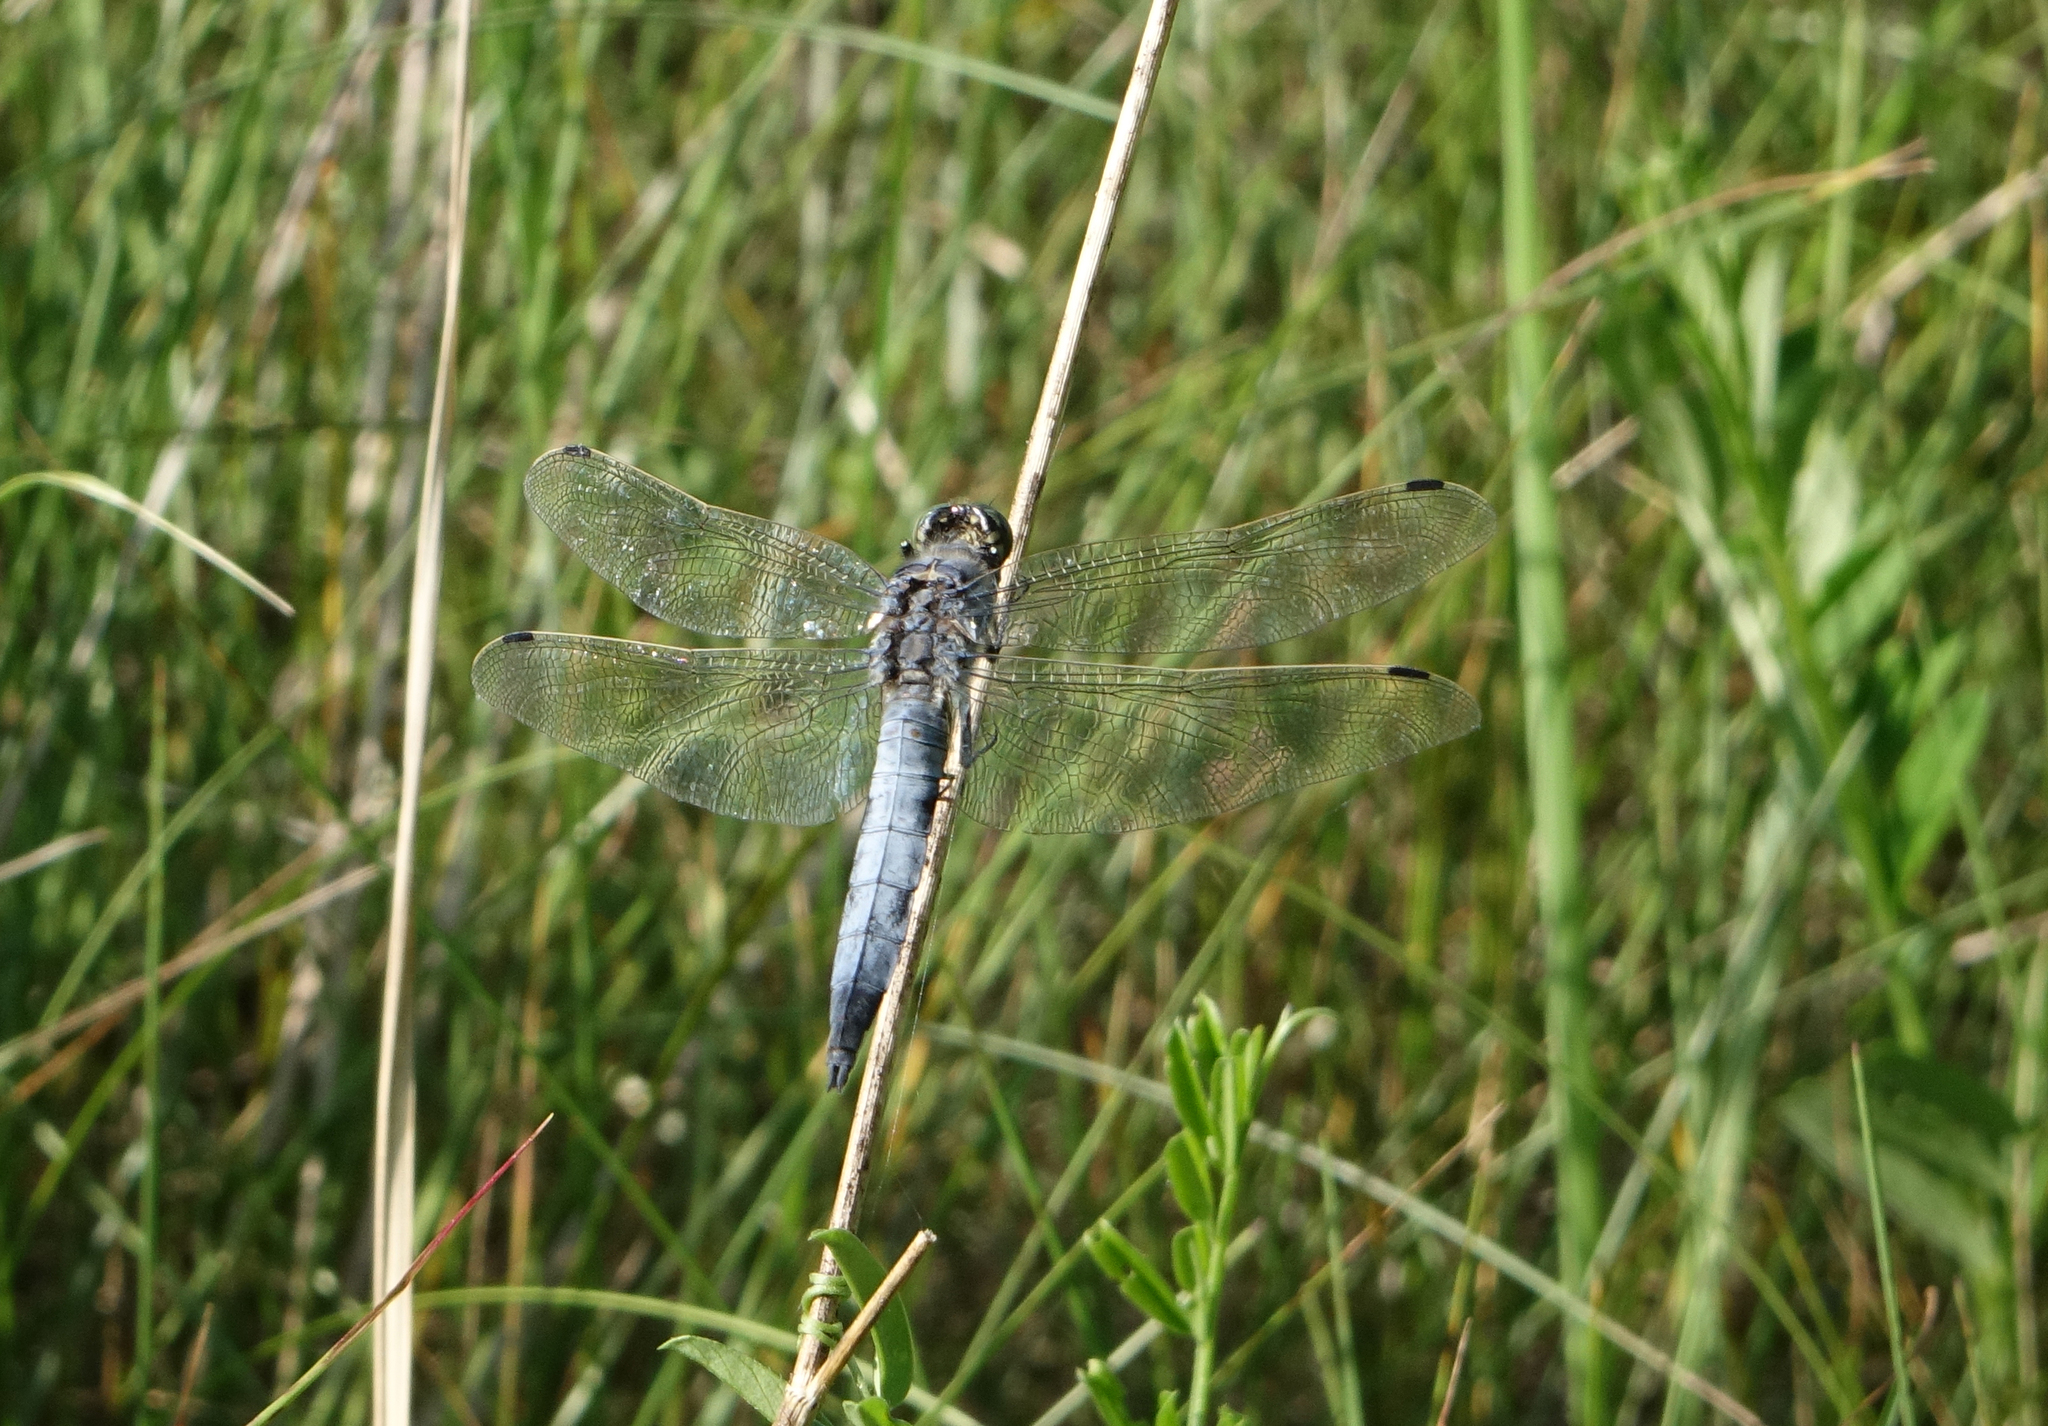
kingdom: Animalia
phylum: Arthropoda
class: Insecta
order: Odonata
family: Libellulidae
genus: Orthetrum
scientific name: Orthetrum cancellatum
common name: Black-tailed skimmer
